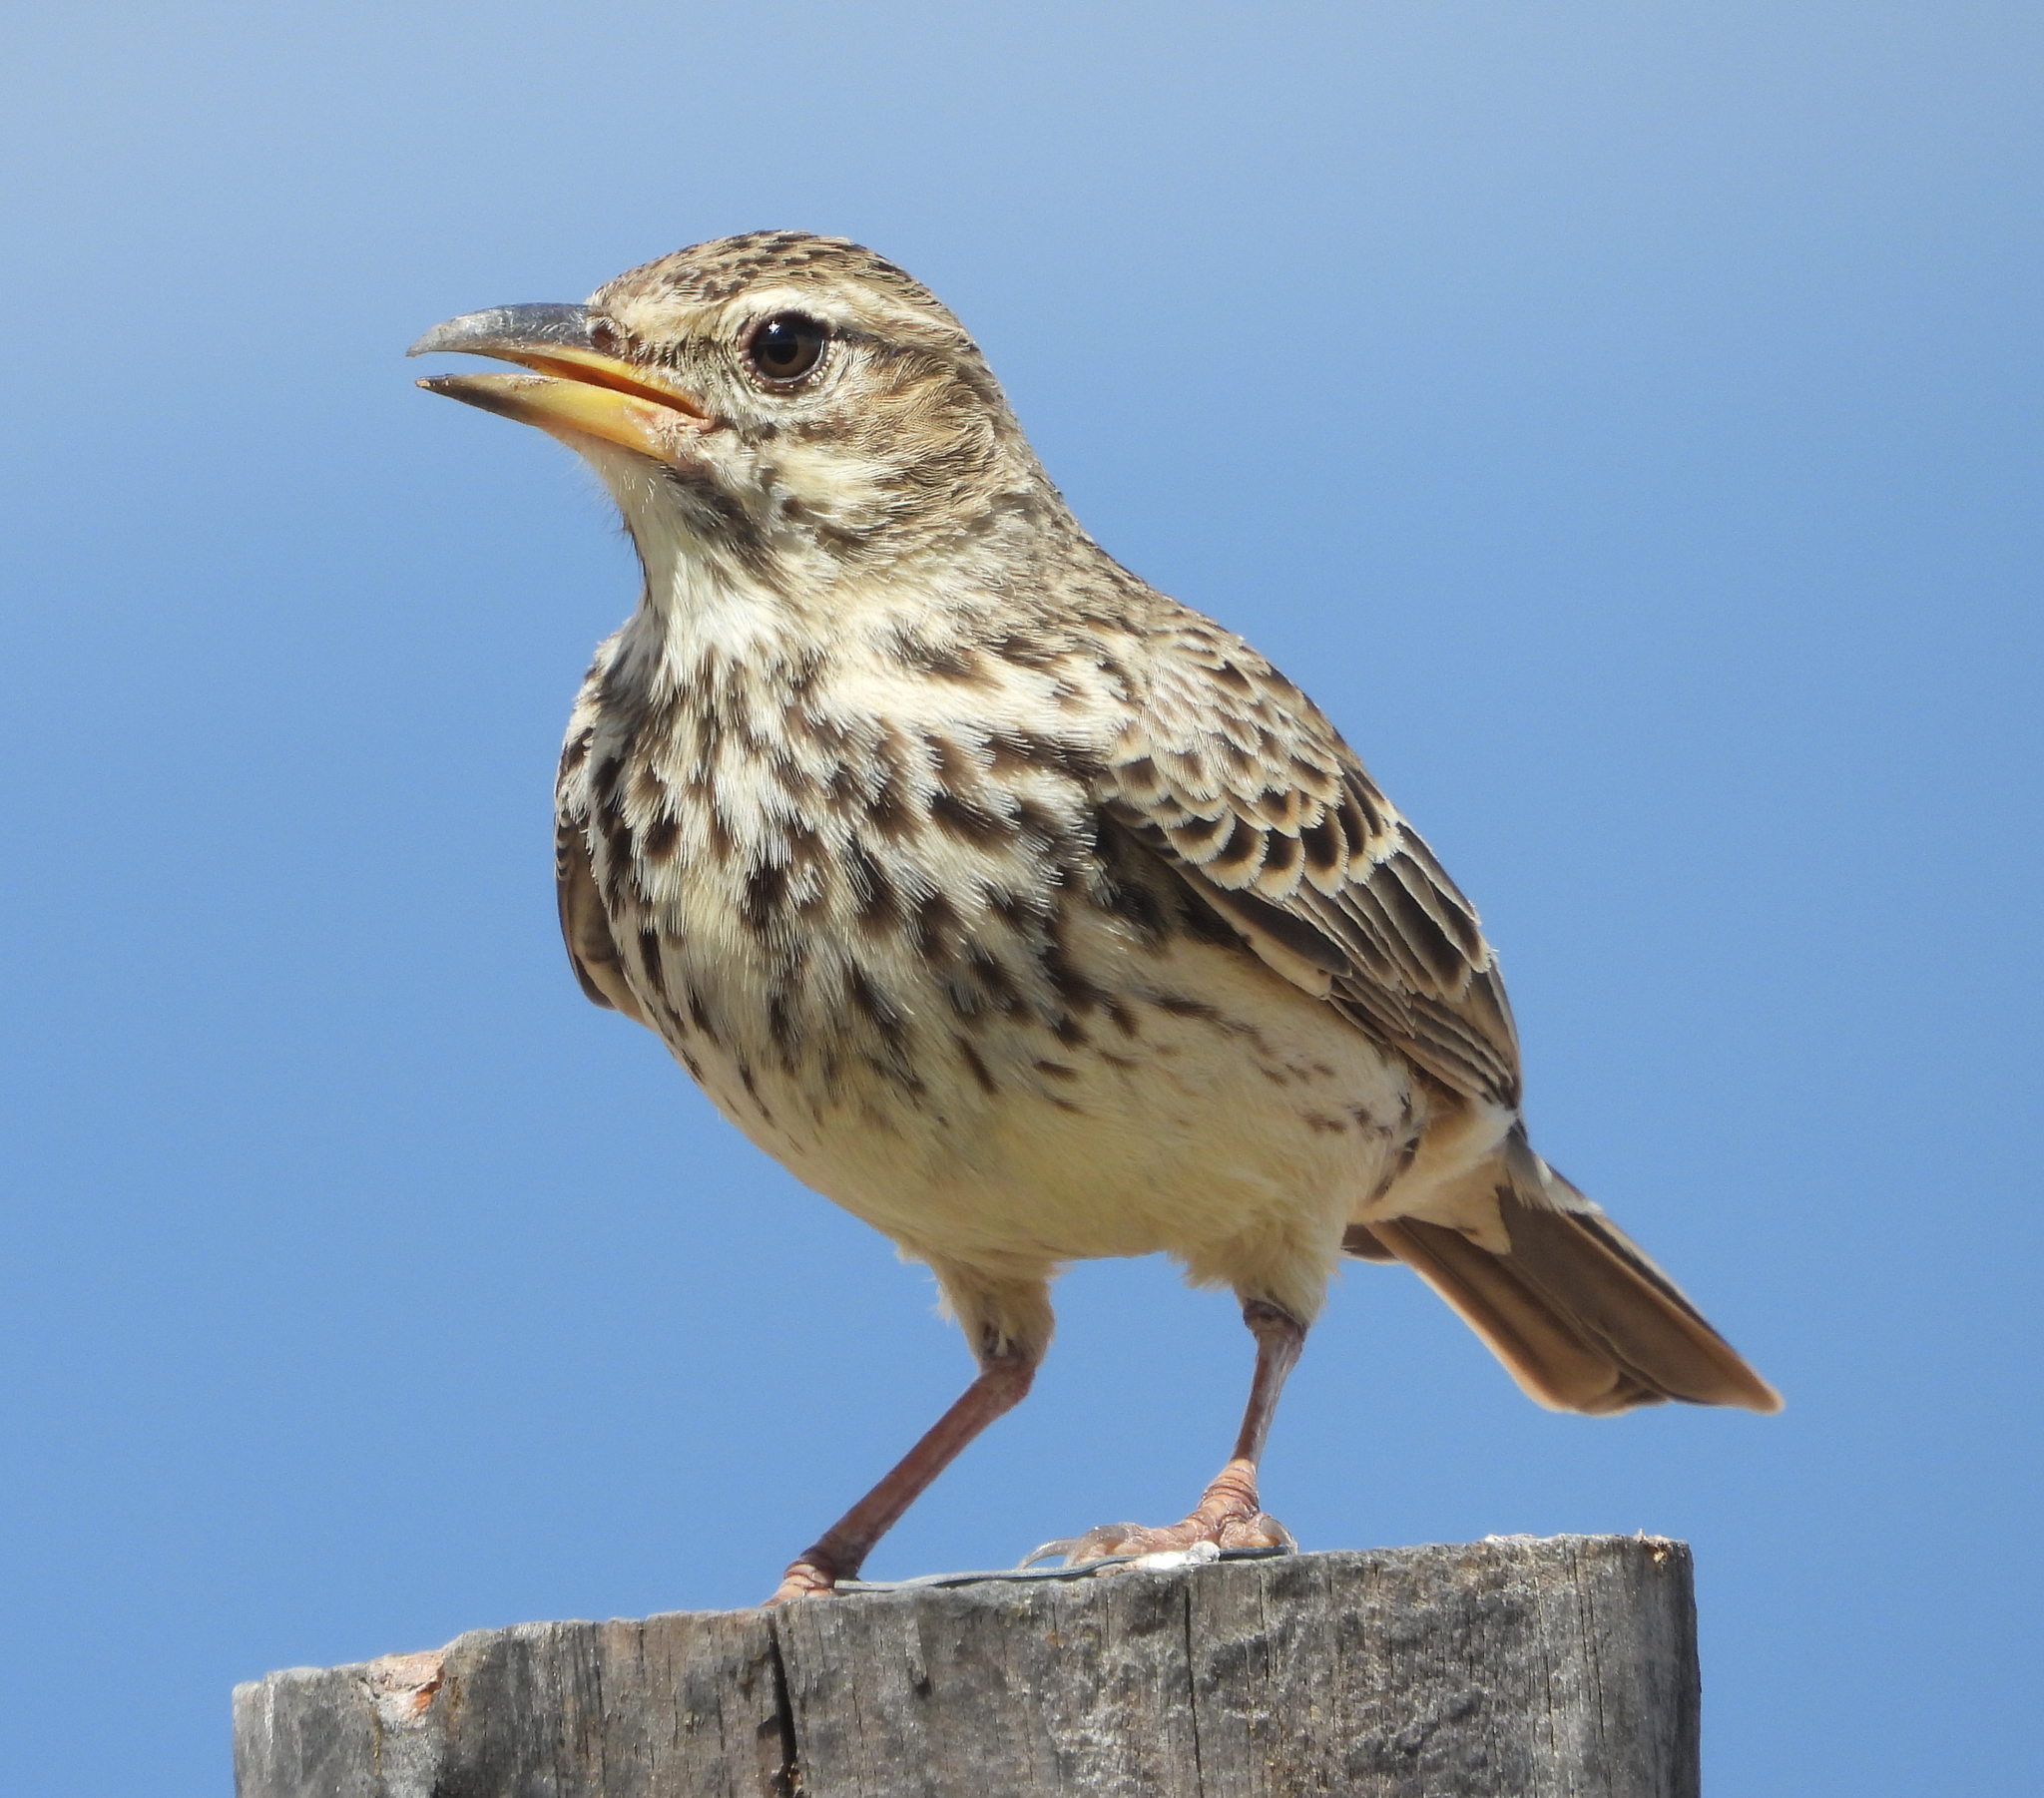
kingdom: Animalia
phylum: Chordata
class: Aves
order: Passeriformes
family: Alaudidae
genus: Galerida
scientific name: Galerida magnirostris
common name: Large-billed lark
